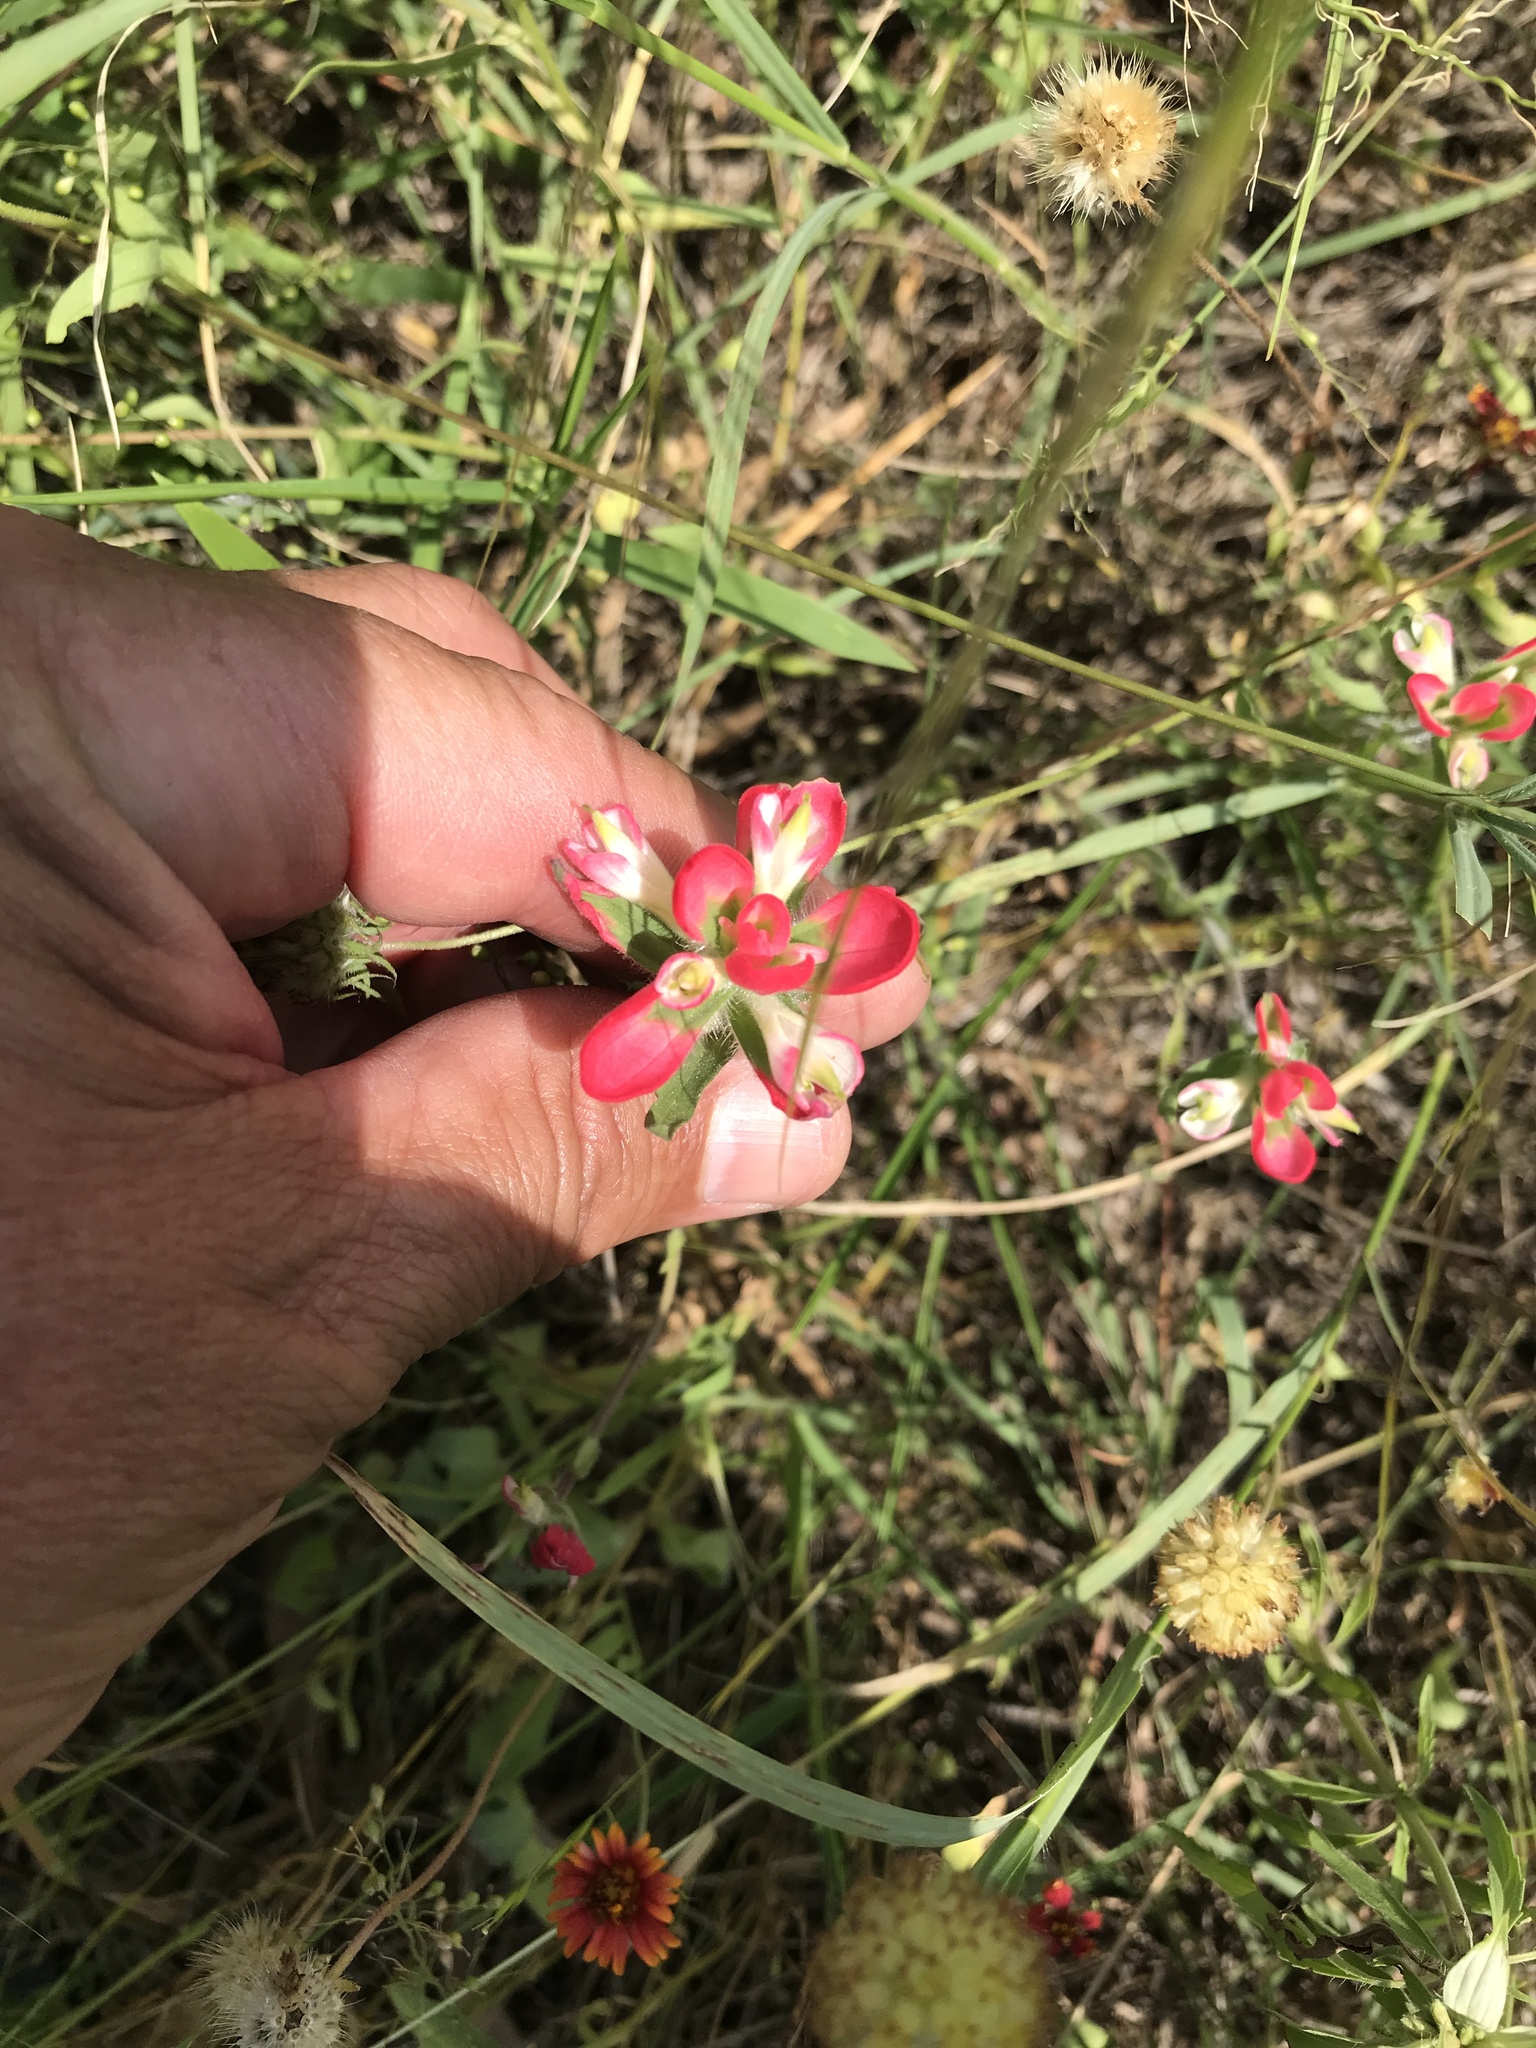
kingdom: Plantae
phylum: Tracheophyta
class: Magnoliopsida
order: Lamiales
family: Orobanchaceae
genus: Castilleja
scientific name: Castilleja indivisa
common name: Texas paintbrush
